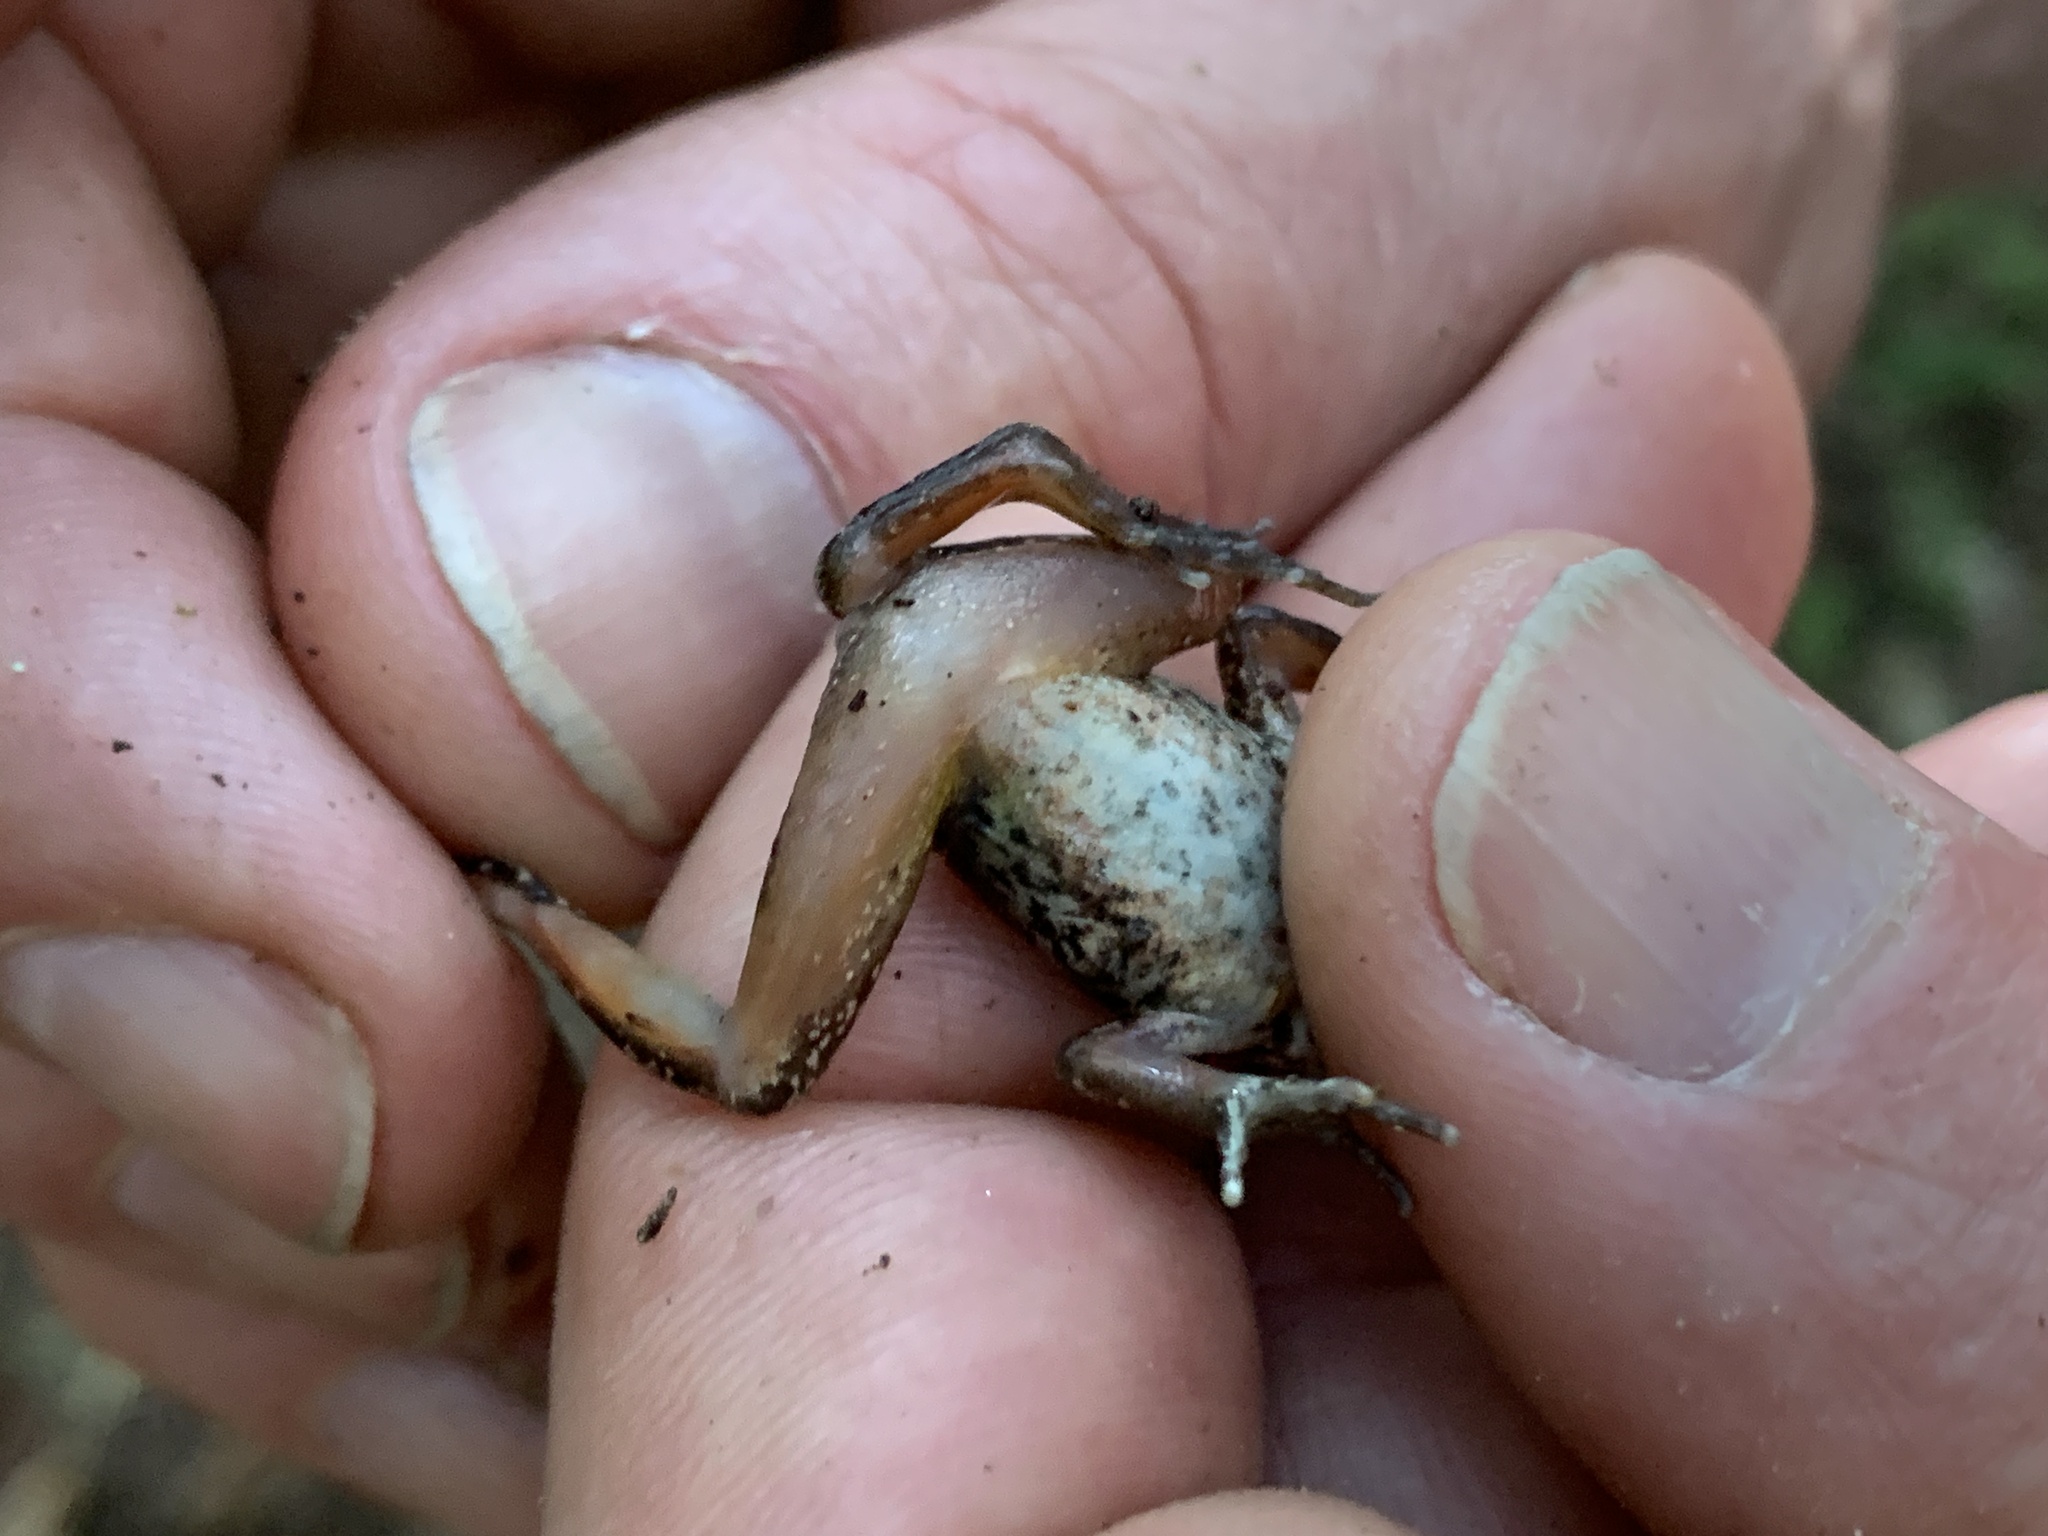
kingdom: Animalia
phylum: Chordata
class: Amphibia
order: Anura
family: Ranidae
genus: Rana
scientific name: Rana aurora
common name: Red-legged frog
